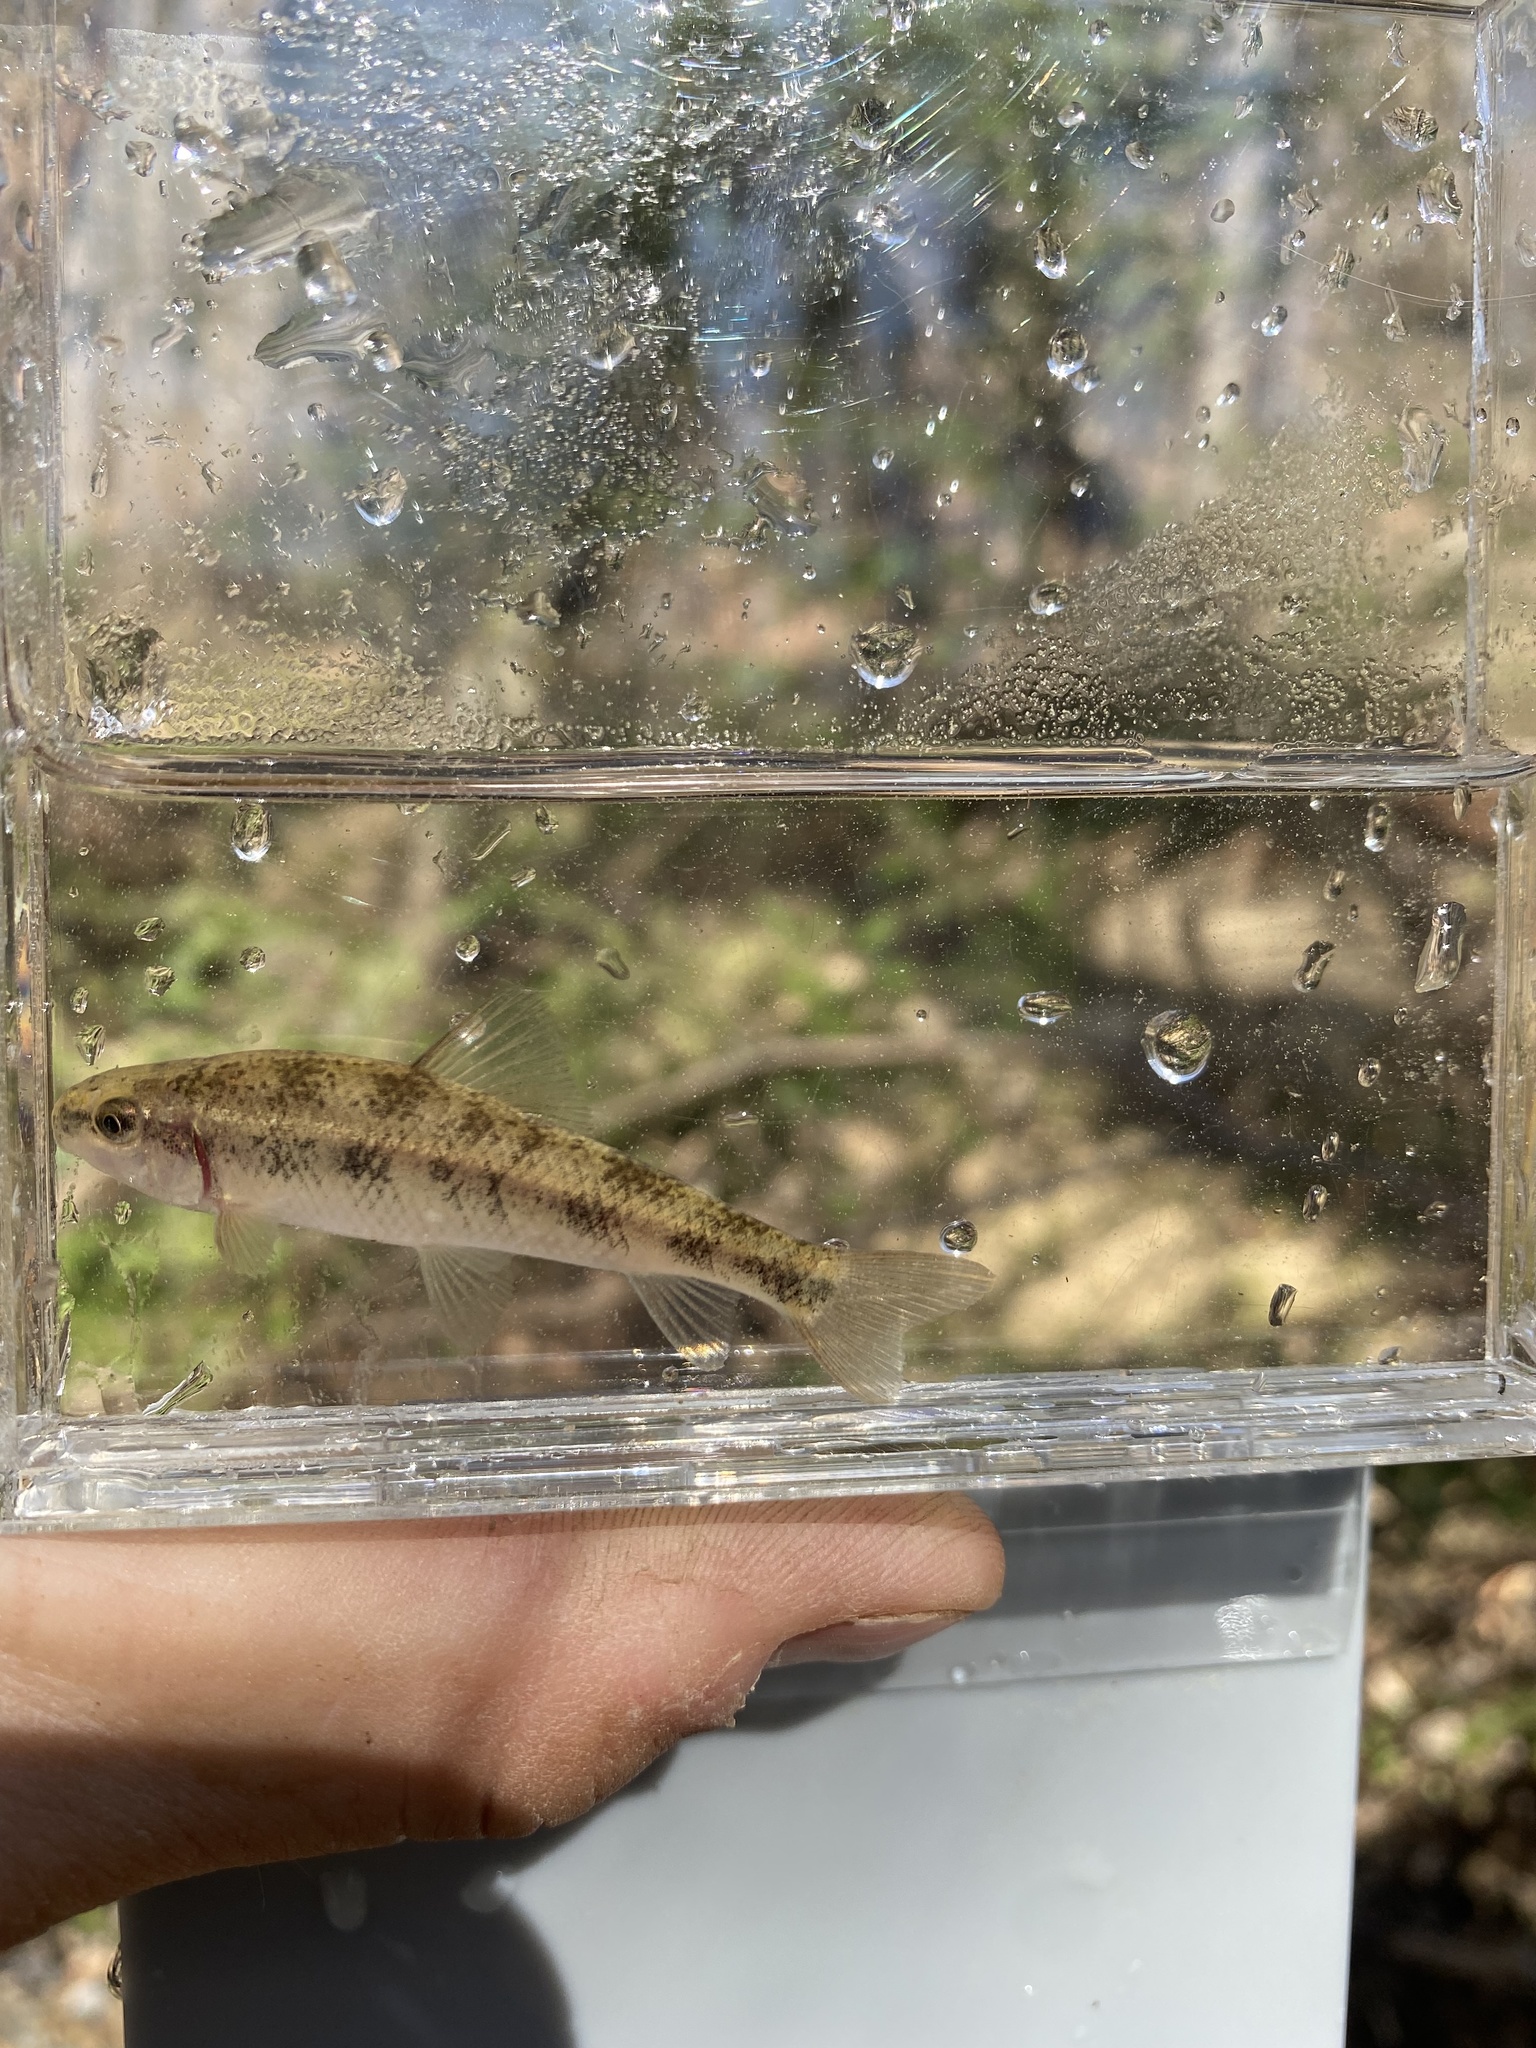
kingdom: Animalia
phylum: Chordata
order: Cypriniformes
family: Catostomidae
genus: Erimyzon
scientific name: Erimyzon claviformis
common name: Western creek chubsucker
